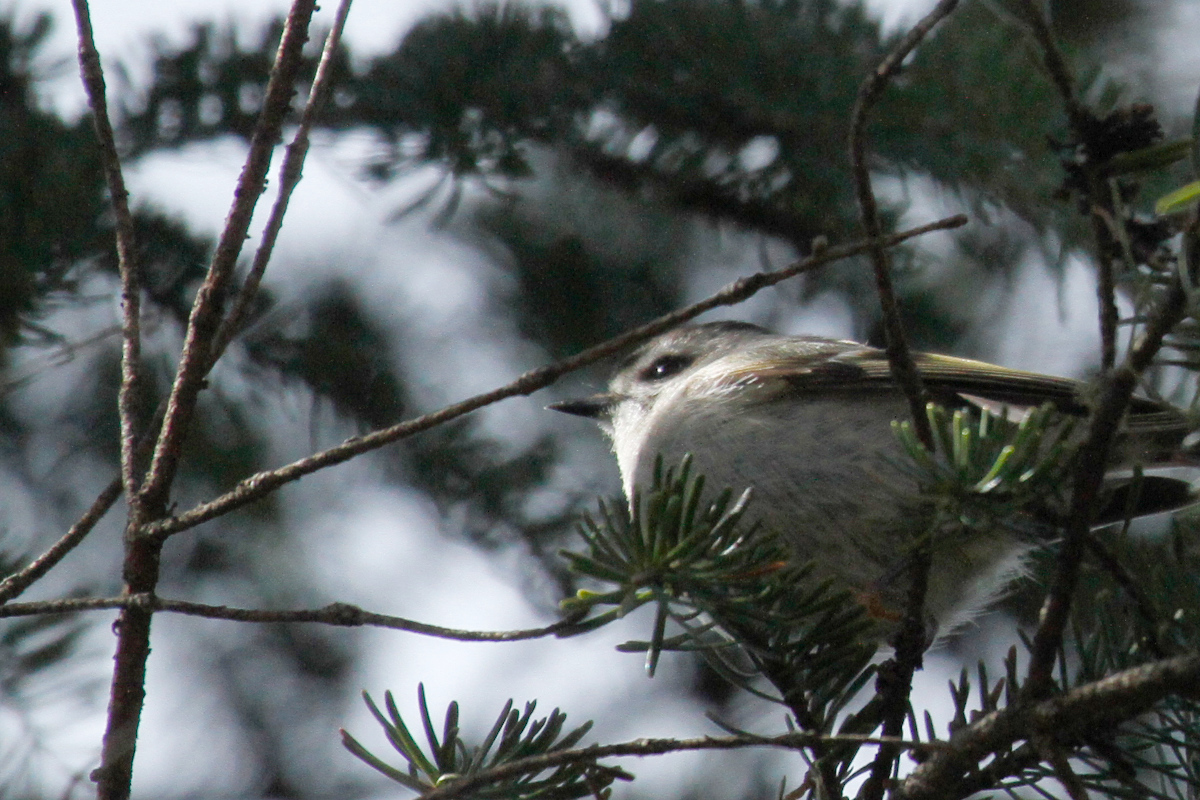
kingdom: Animalia
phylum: Chordata
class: Aves
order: Passeriformes
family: Regulidae
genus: Regulus
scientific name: Regulus satrapa
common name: Golden-crowned kinglet
